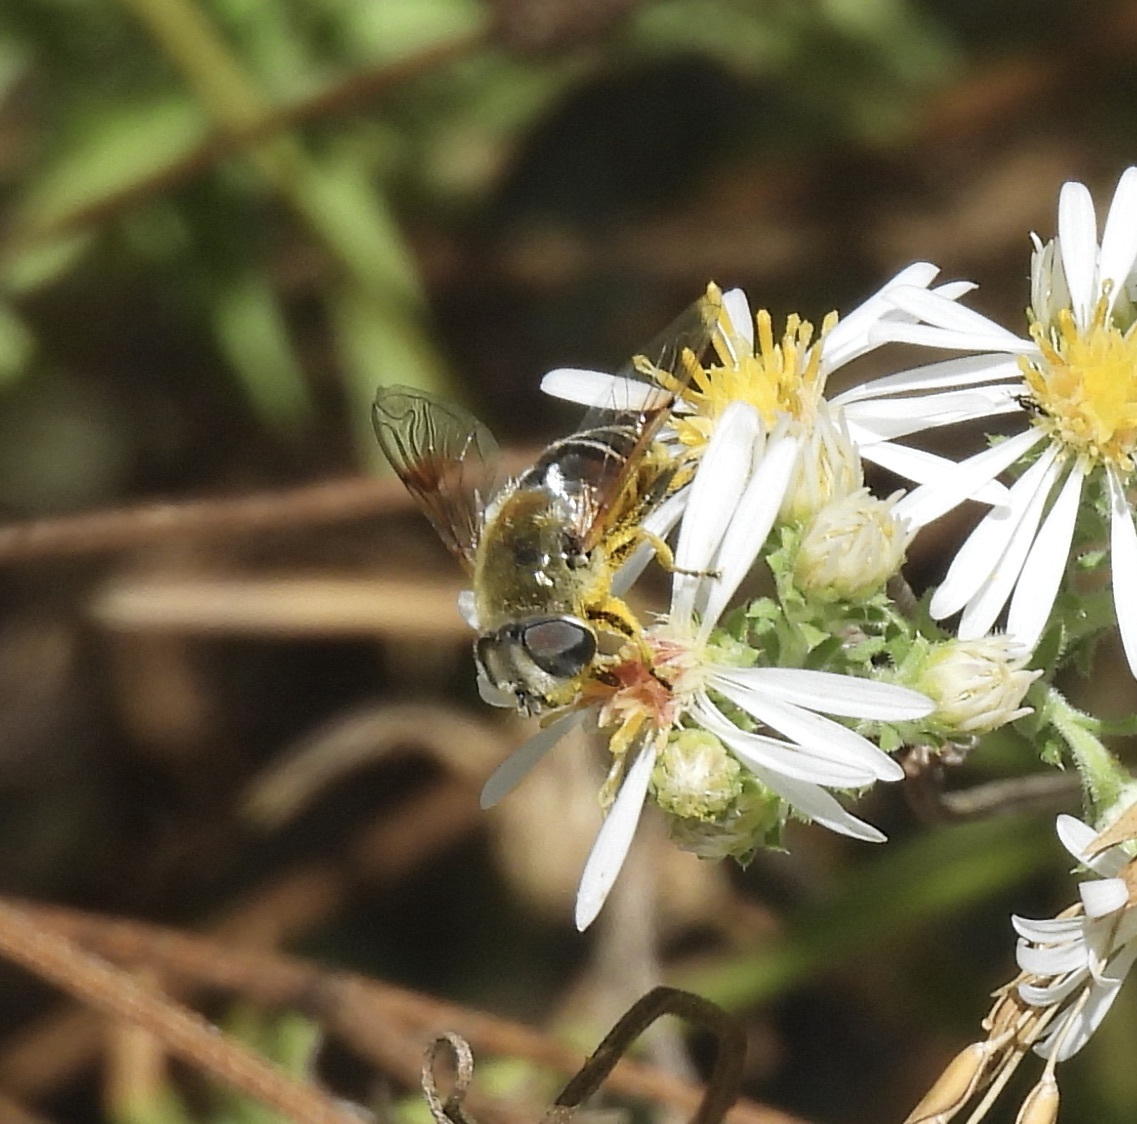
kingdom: Animalia
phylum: Arthropoda
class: Insecta
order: Diptera
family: Syrphidae
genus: Eristalis
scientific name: Eristalis stipator
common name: Yellow-shouldered drone fly
